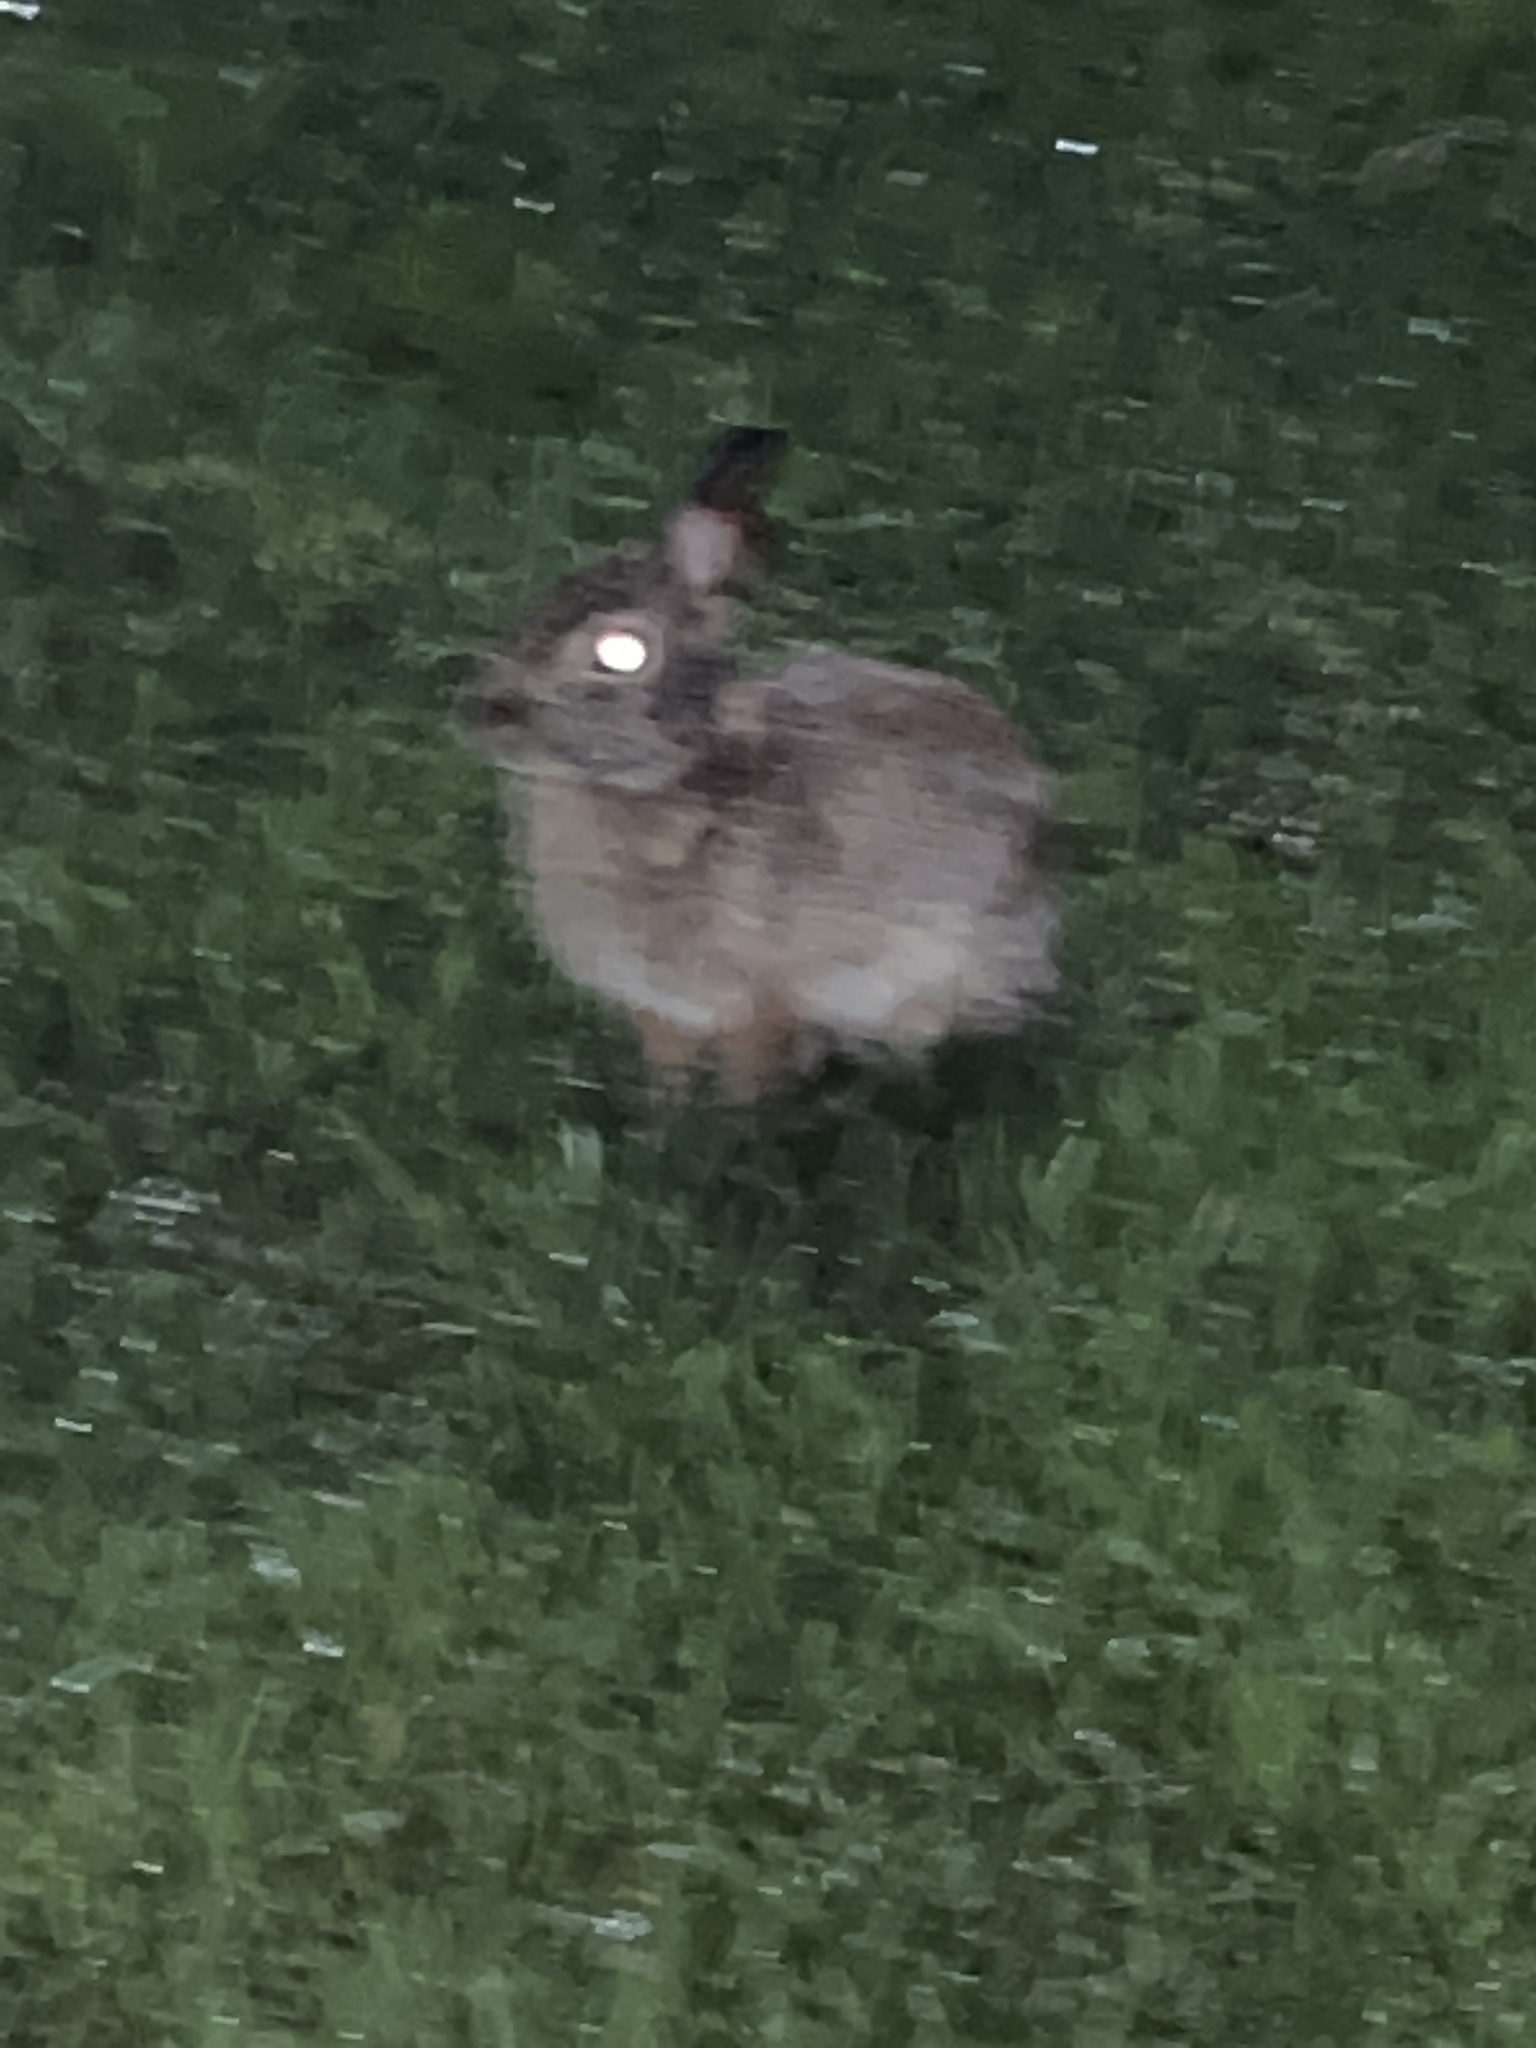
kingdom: Animalia
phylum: Chordata
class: Mammalia
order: Lagomorpha
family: Leporidae
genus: Sylvilagus
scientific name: Sylvilagus floridanus
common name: Eastern cottontail
